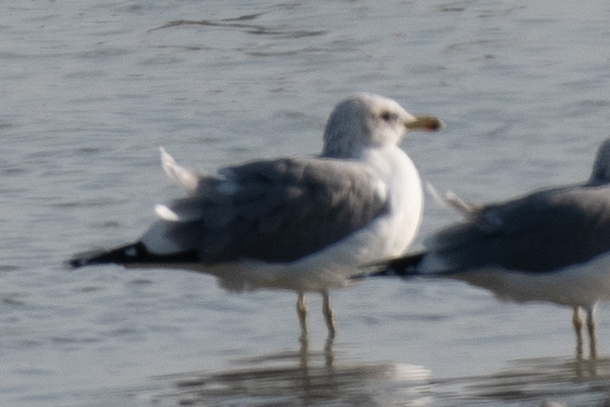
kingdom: Animalia
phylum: Chordata
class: Aves
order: Charadriiformes
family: Laridae
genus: Larus
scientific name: Larus californicus
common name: California gull
